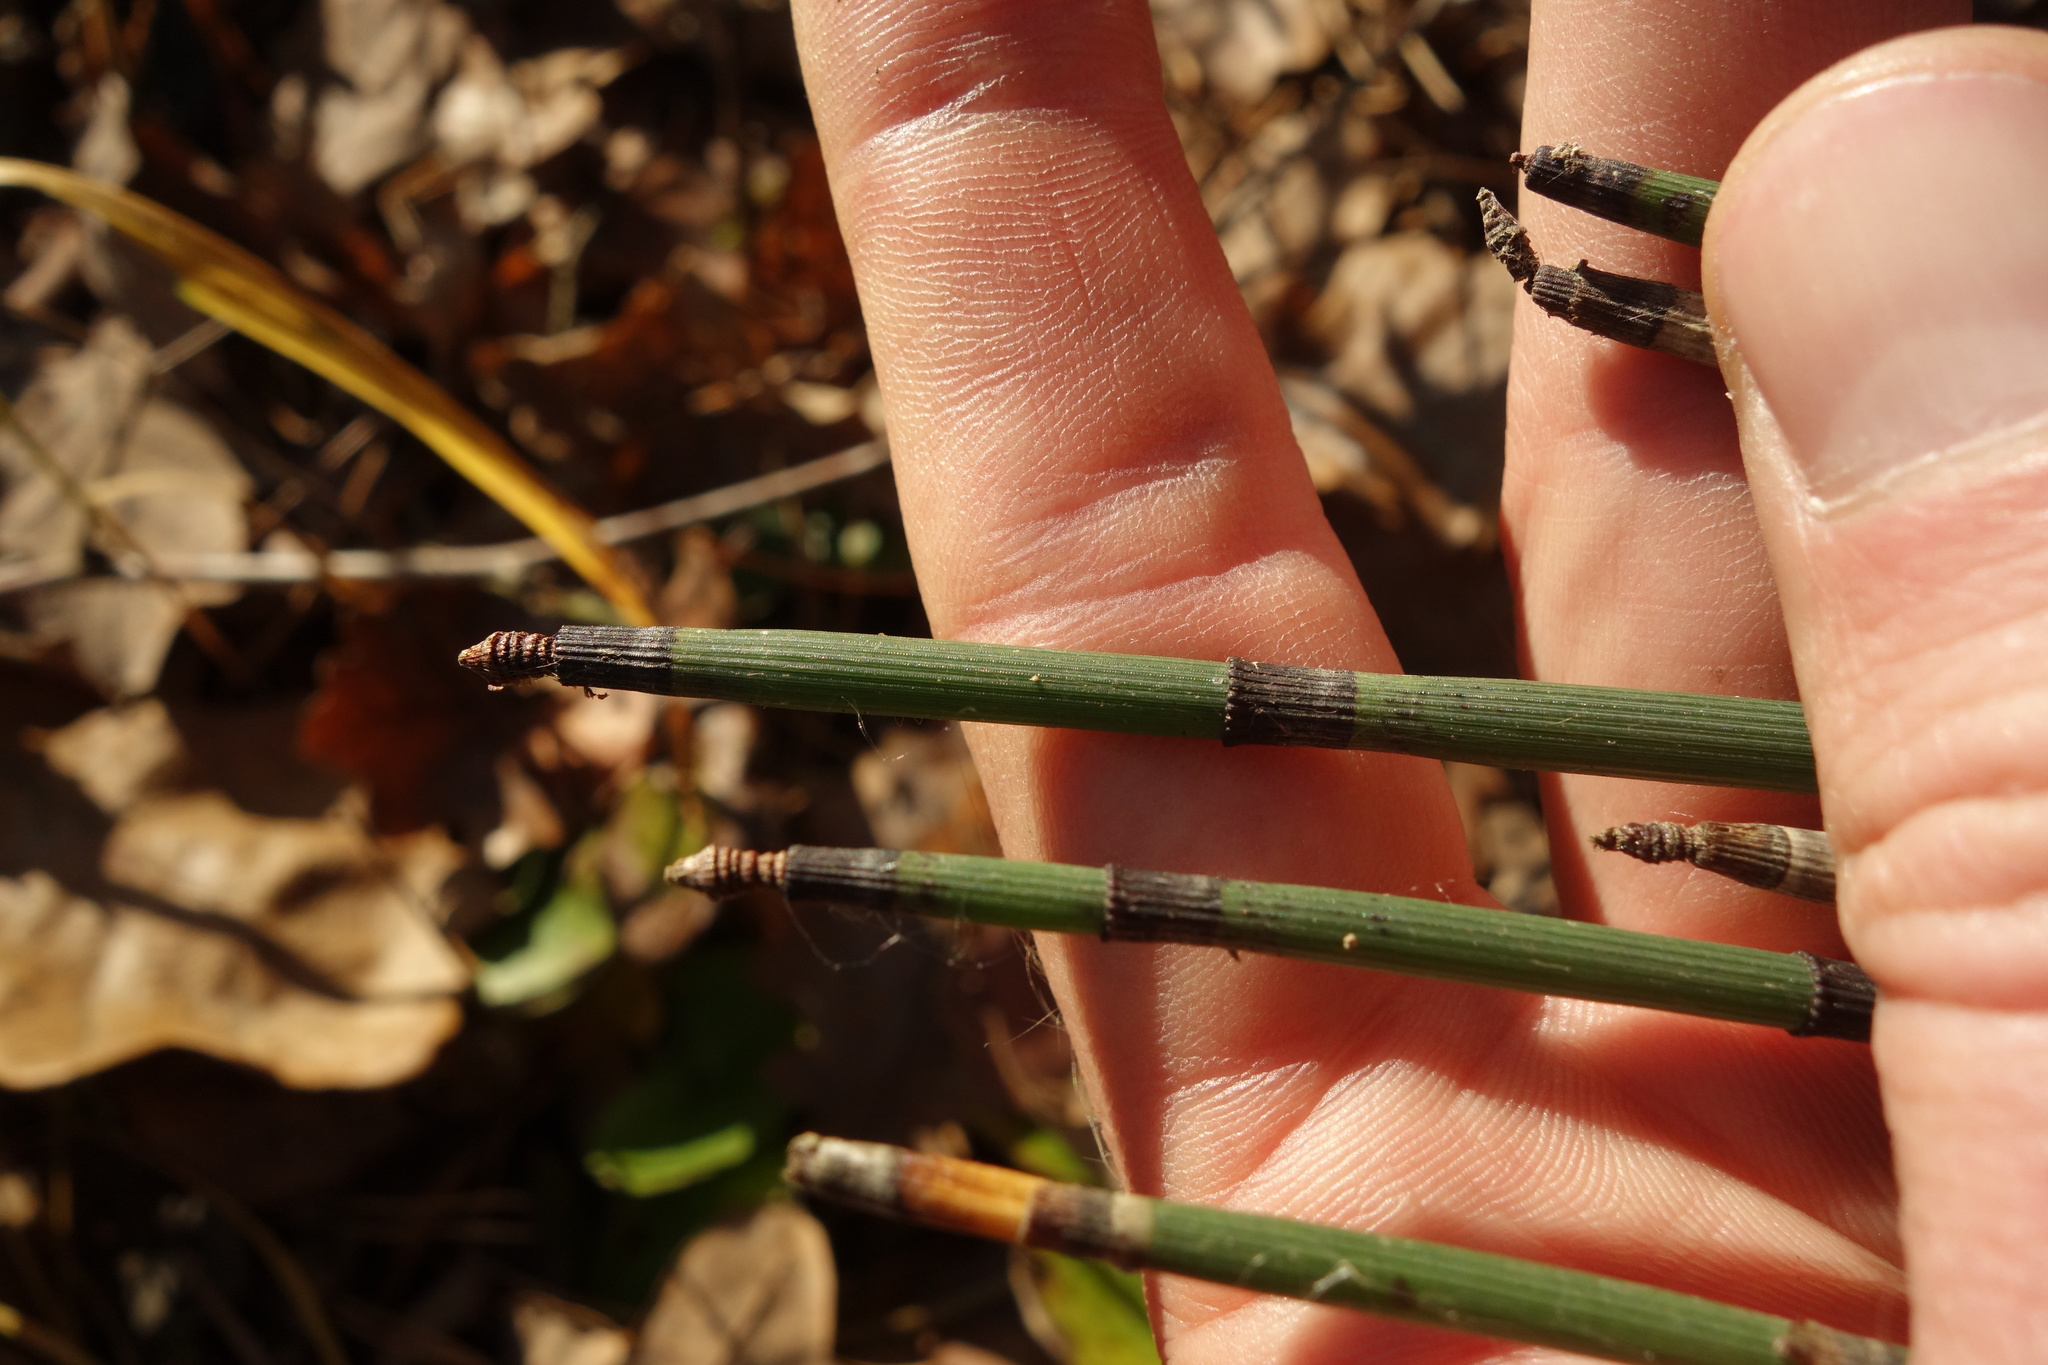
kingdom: Plantae
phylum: Tracheophyta
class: Polypodiopsida
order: Equisetales
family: Equisetaceae
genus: Equisetum
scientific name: Equisetum hyemale
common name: Rough horsetail
